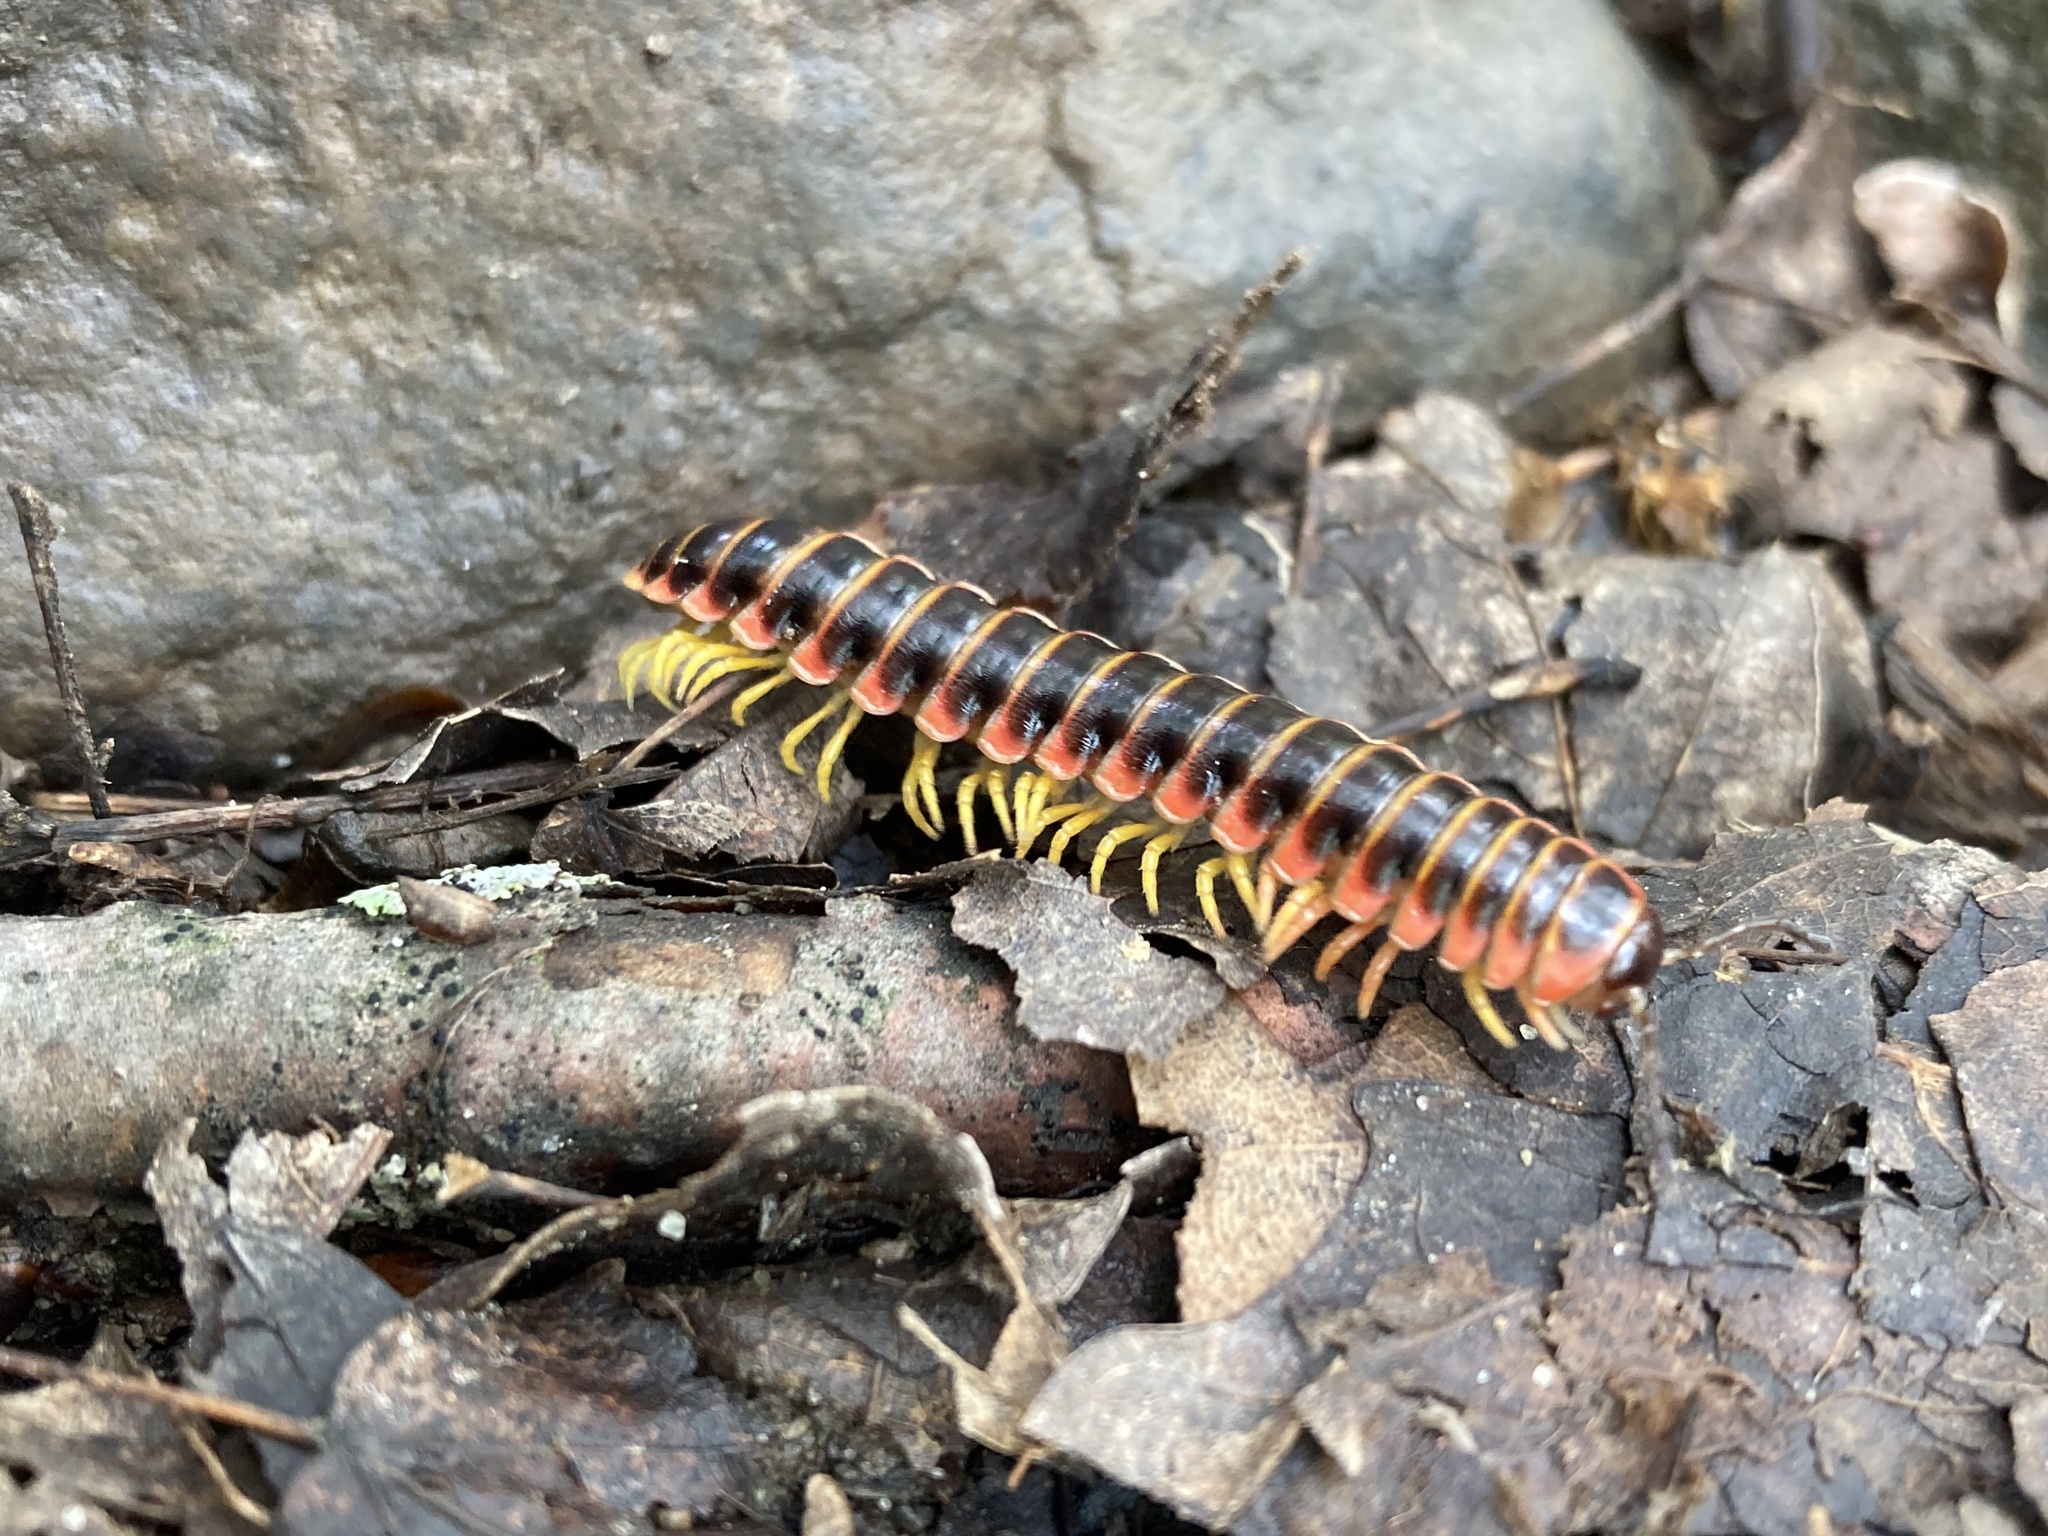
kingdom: Animalia
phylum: Arthropoda
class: Diplopoda
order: Polydesmida
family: Xystodesmidae
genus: Apheloria
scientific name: Apheloria virginiensis
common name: Black-and-gold flat millipede
